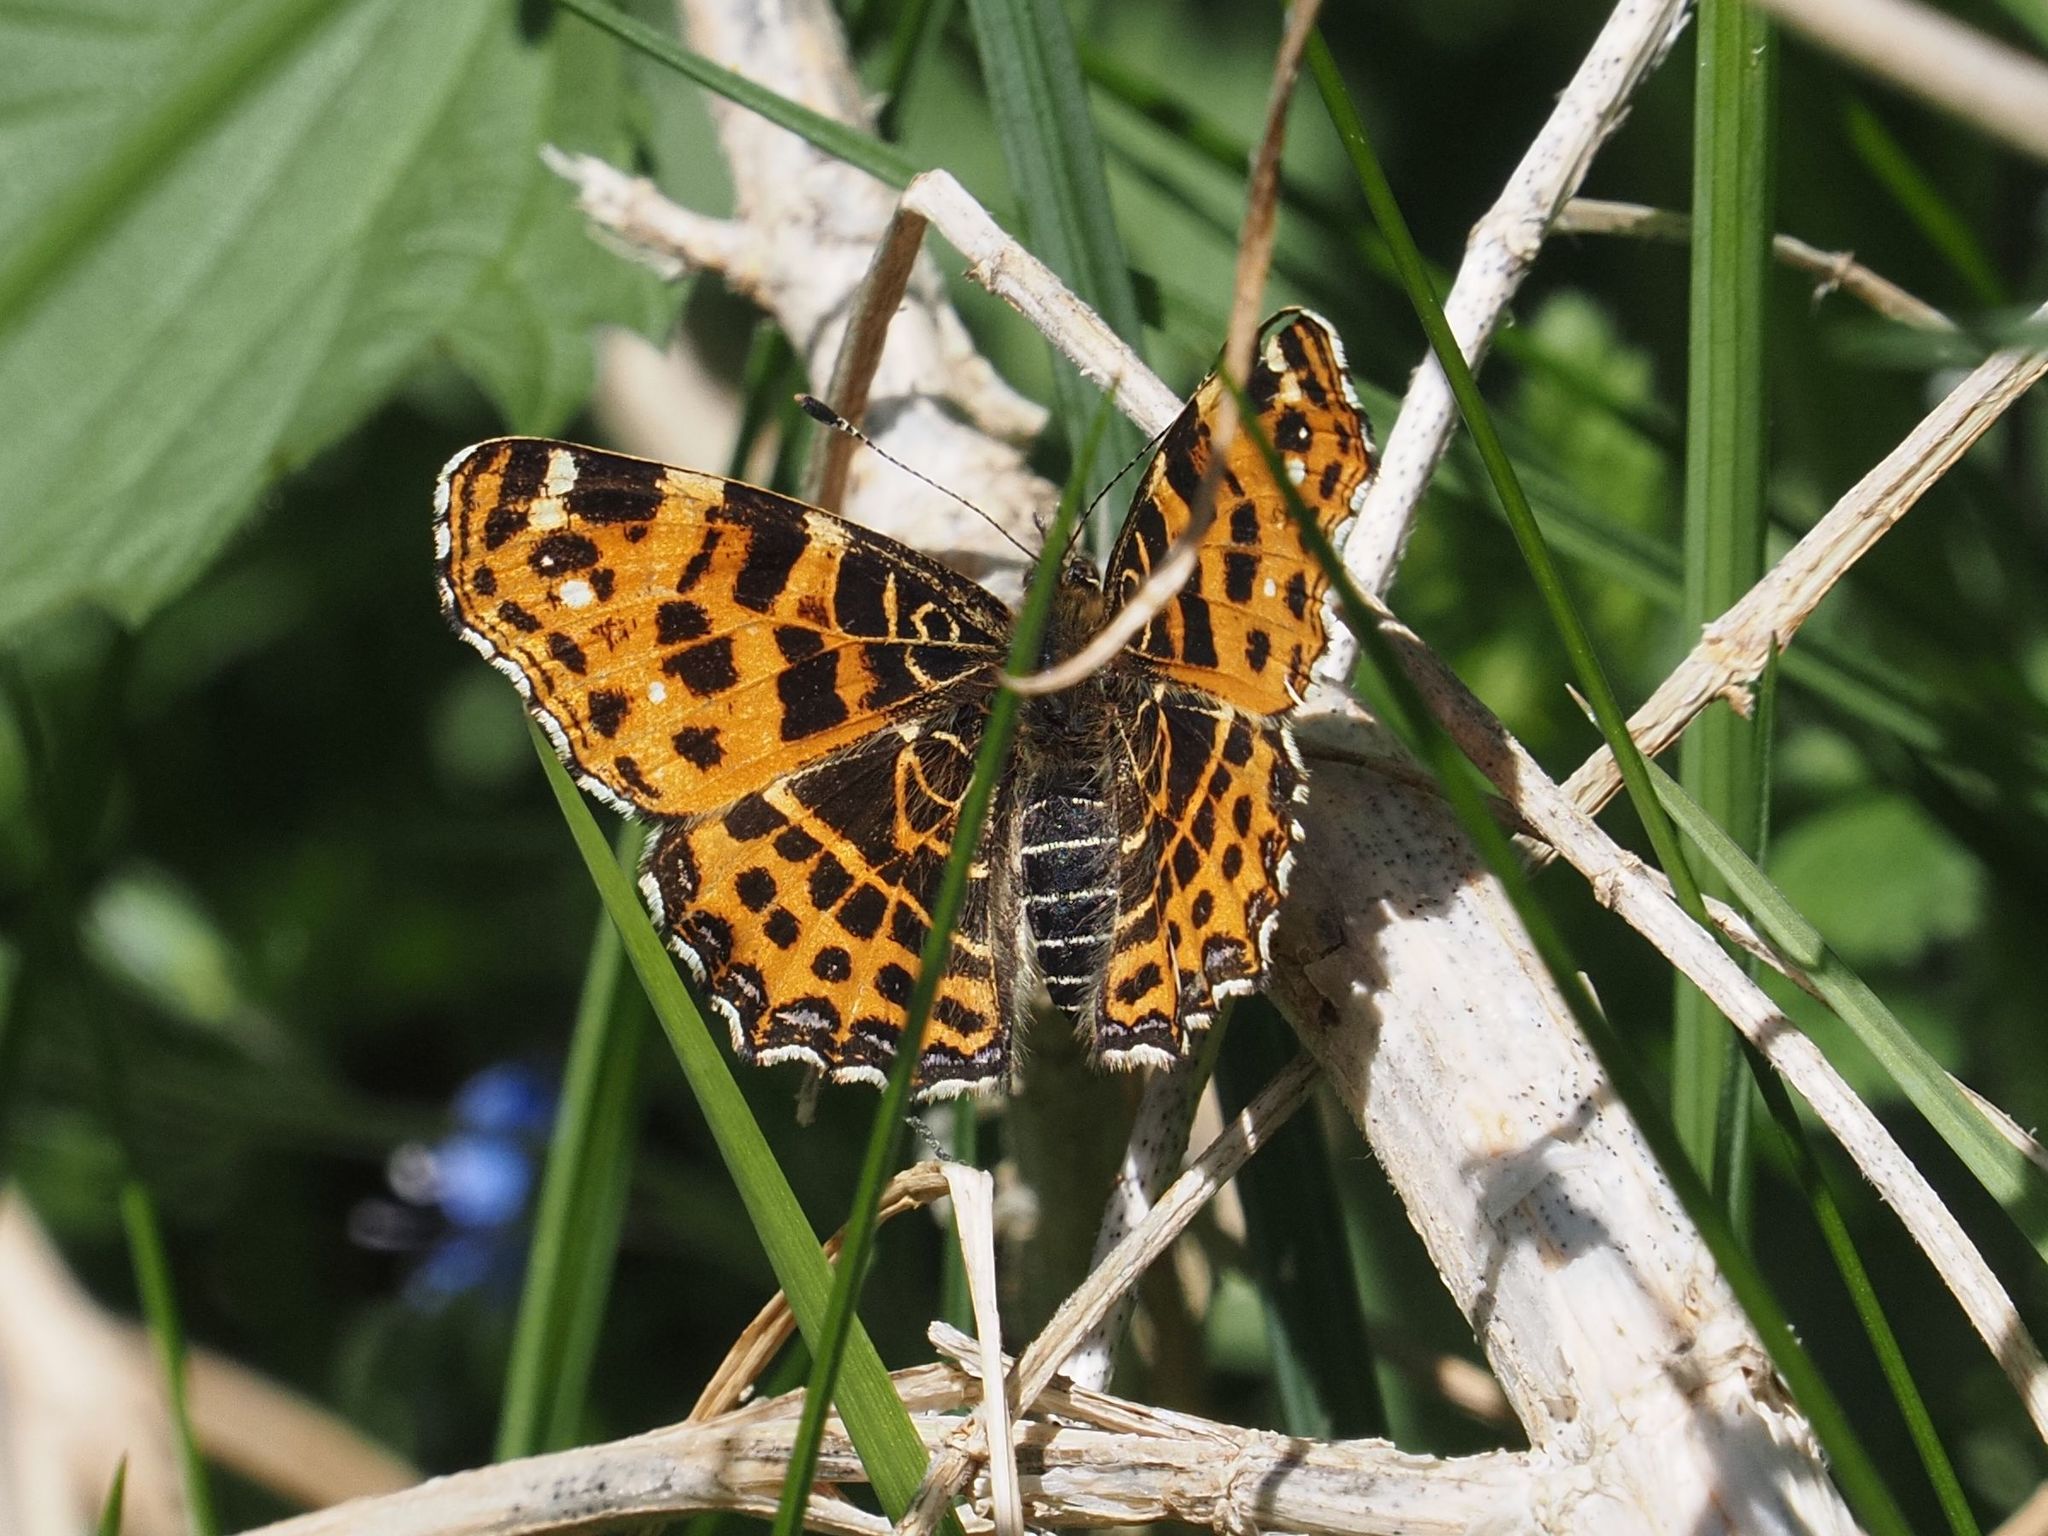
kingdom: Animalia
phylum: Arthropoda
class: Insecta
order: Lepidoptera
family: Nymphalidae
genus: Araschnia
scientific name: Araschnia levana
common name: Map butterfly
